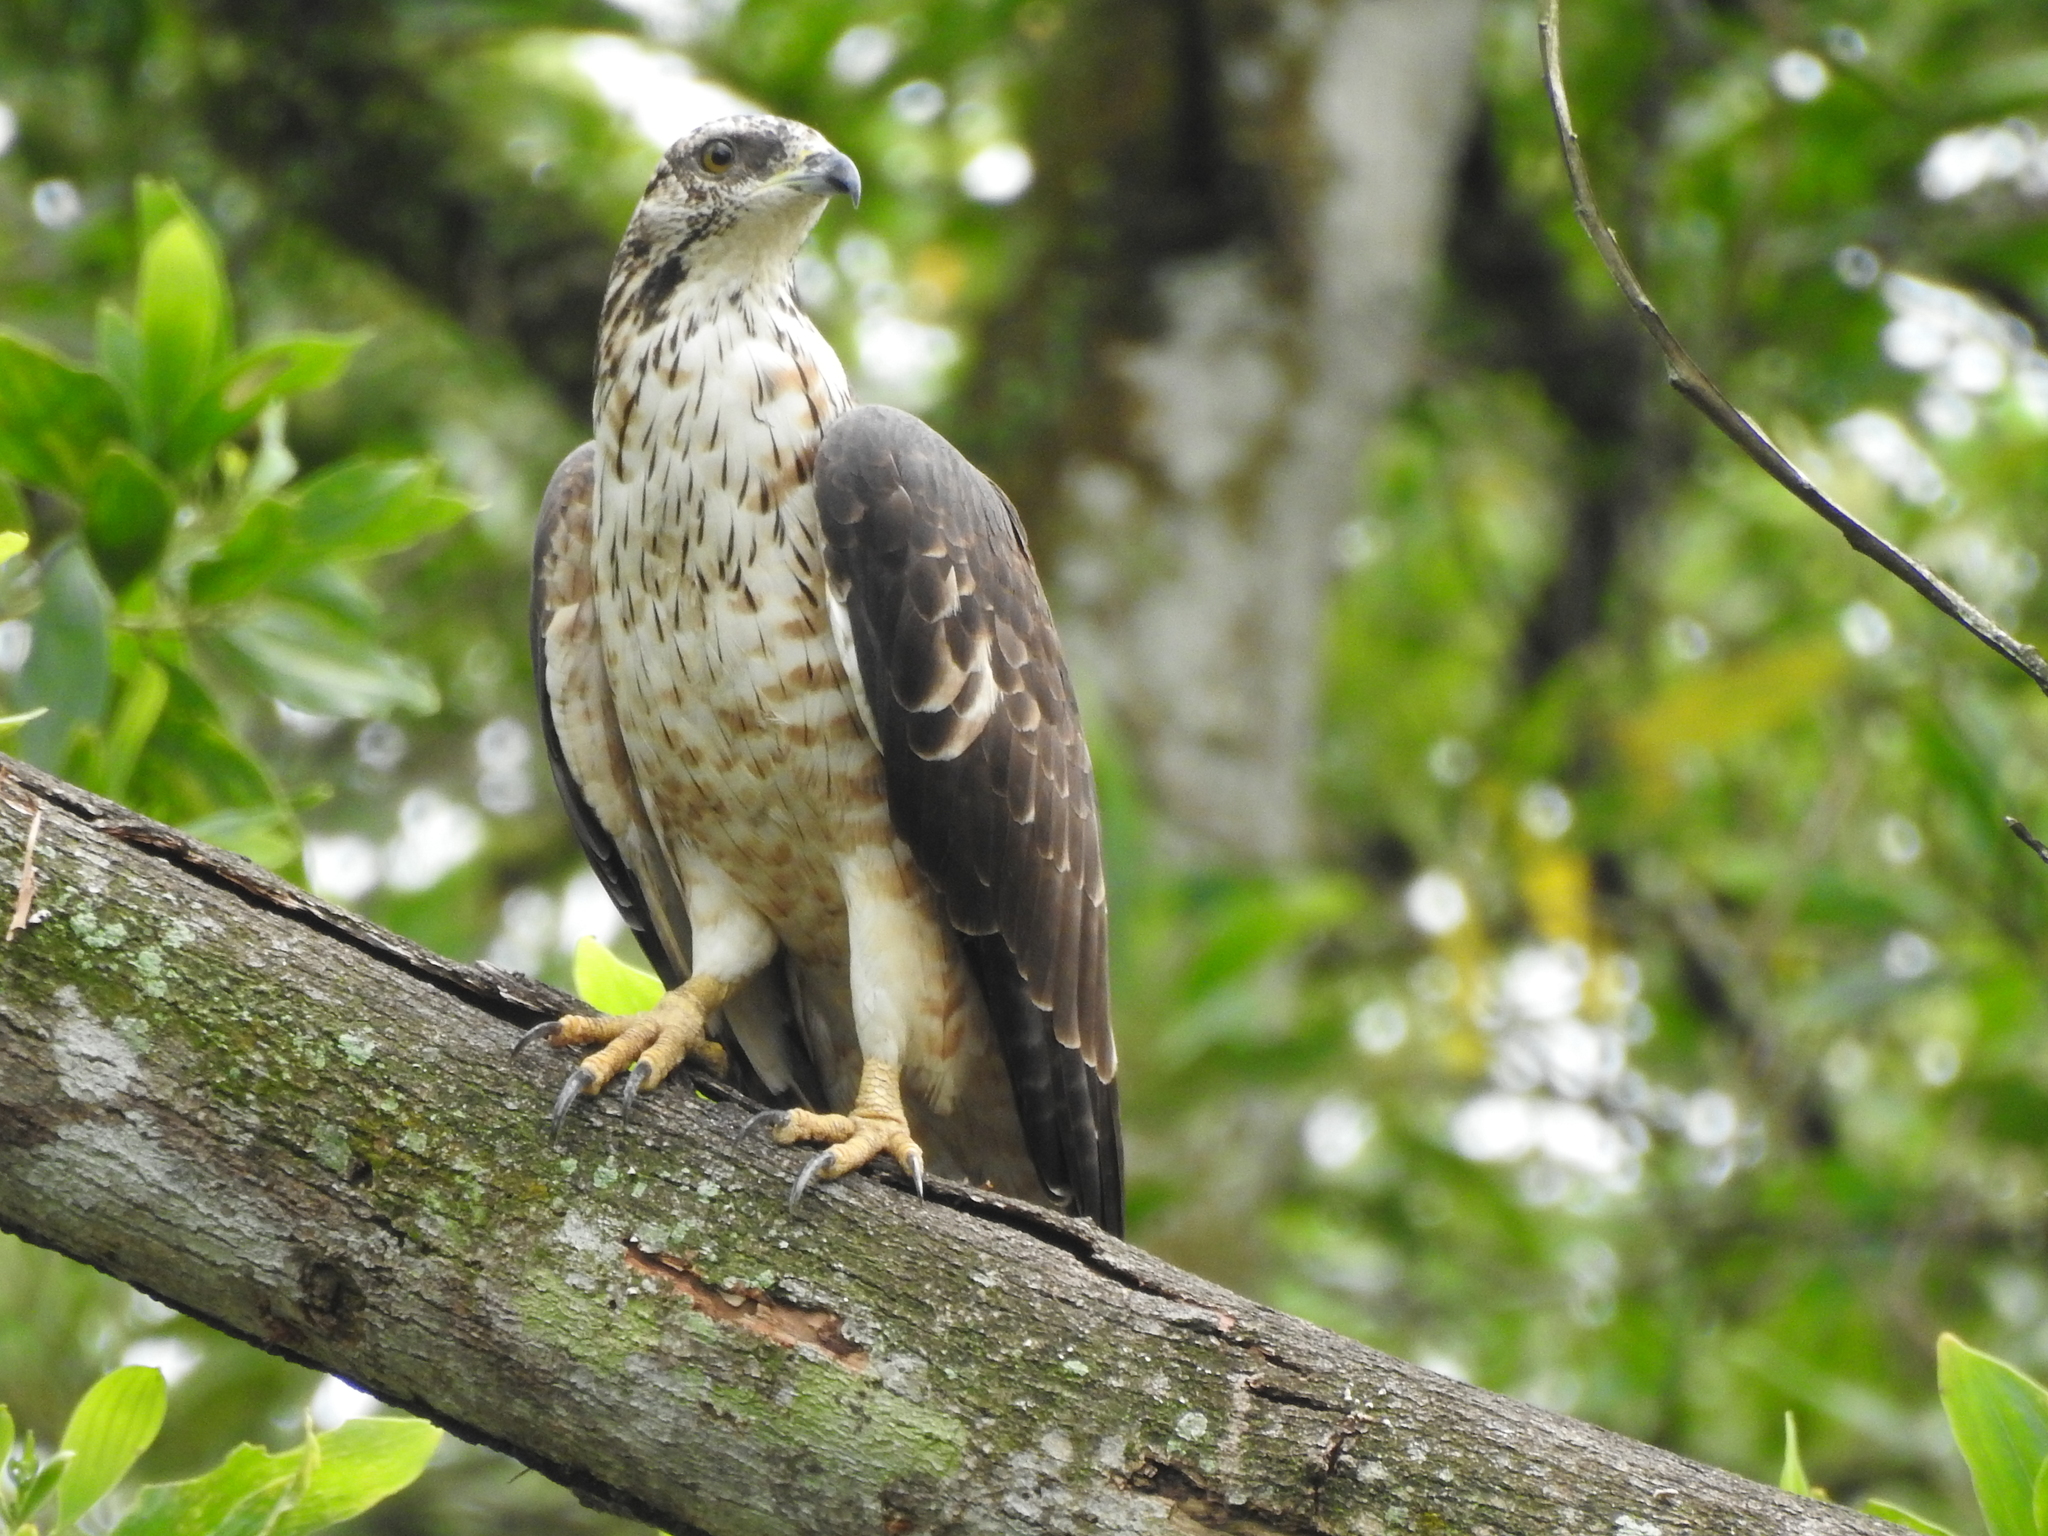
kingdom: Animalia
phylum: Chordata
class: Aves
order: Accipitriformes
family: Accipitridae
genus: Pernis
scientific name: Pernis ptilorhynchus
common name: Crested honey buzzard
